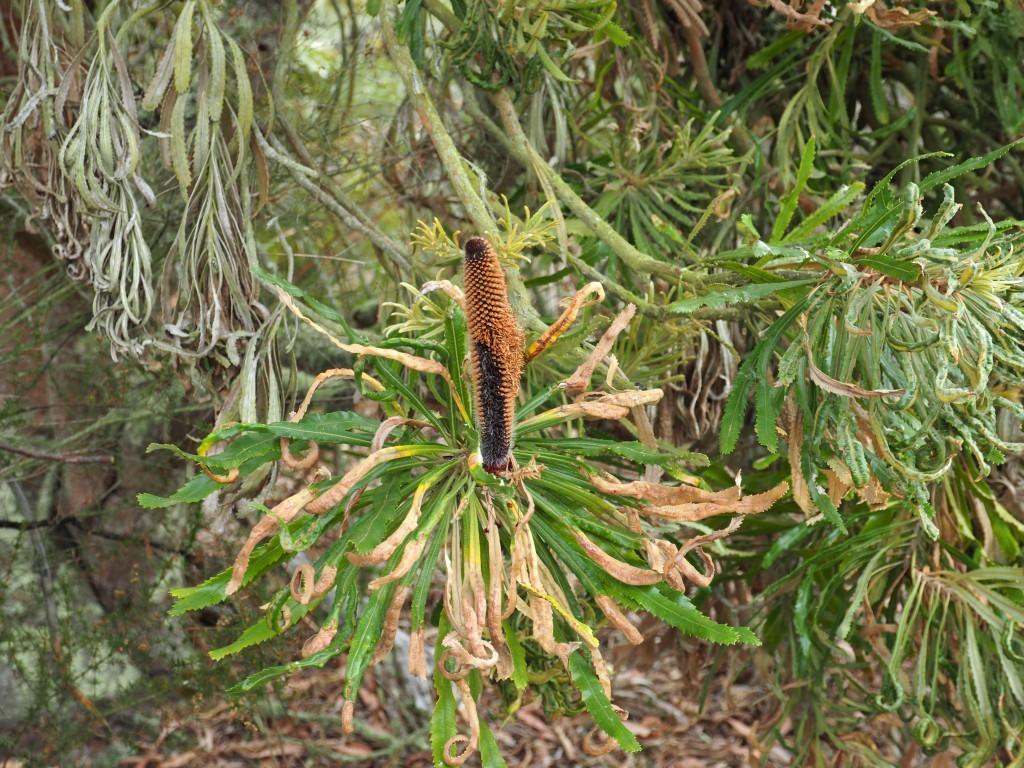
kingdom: Plantae
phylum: Tracheophyta
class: Magnoliopsida
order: Proteales
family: Proteaceae
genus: Banksia
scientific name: Banksia attenuata
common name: Coast banksia
